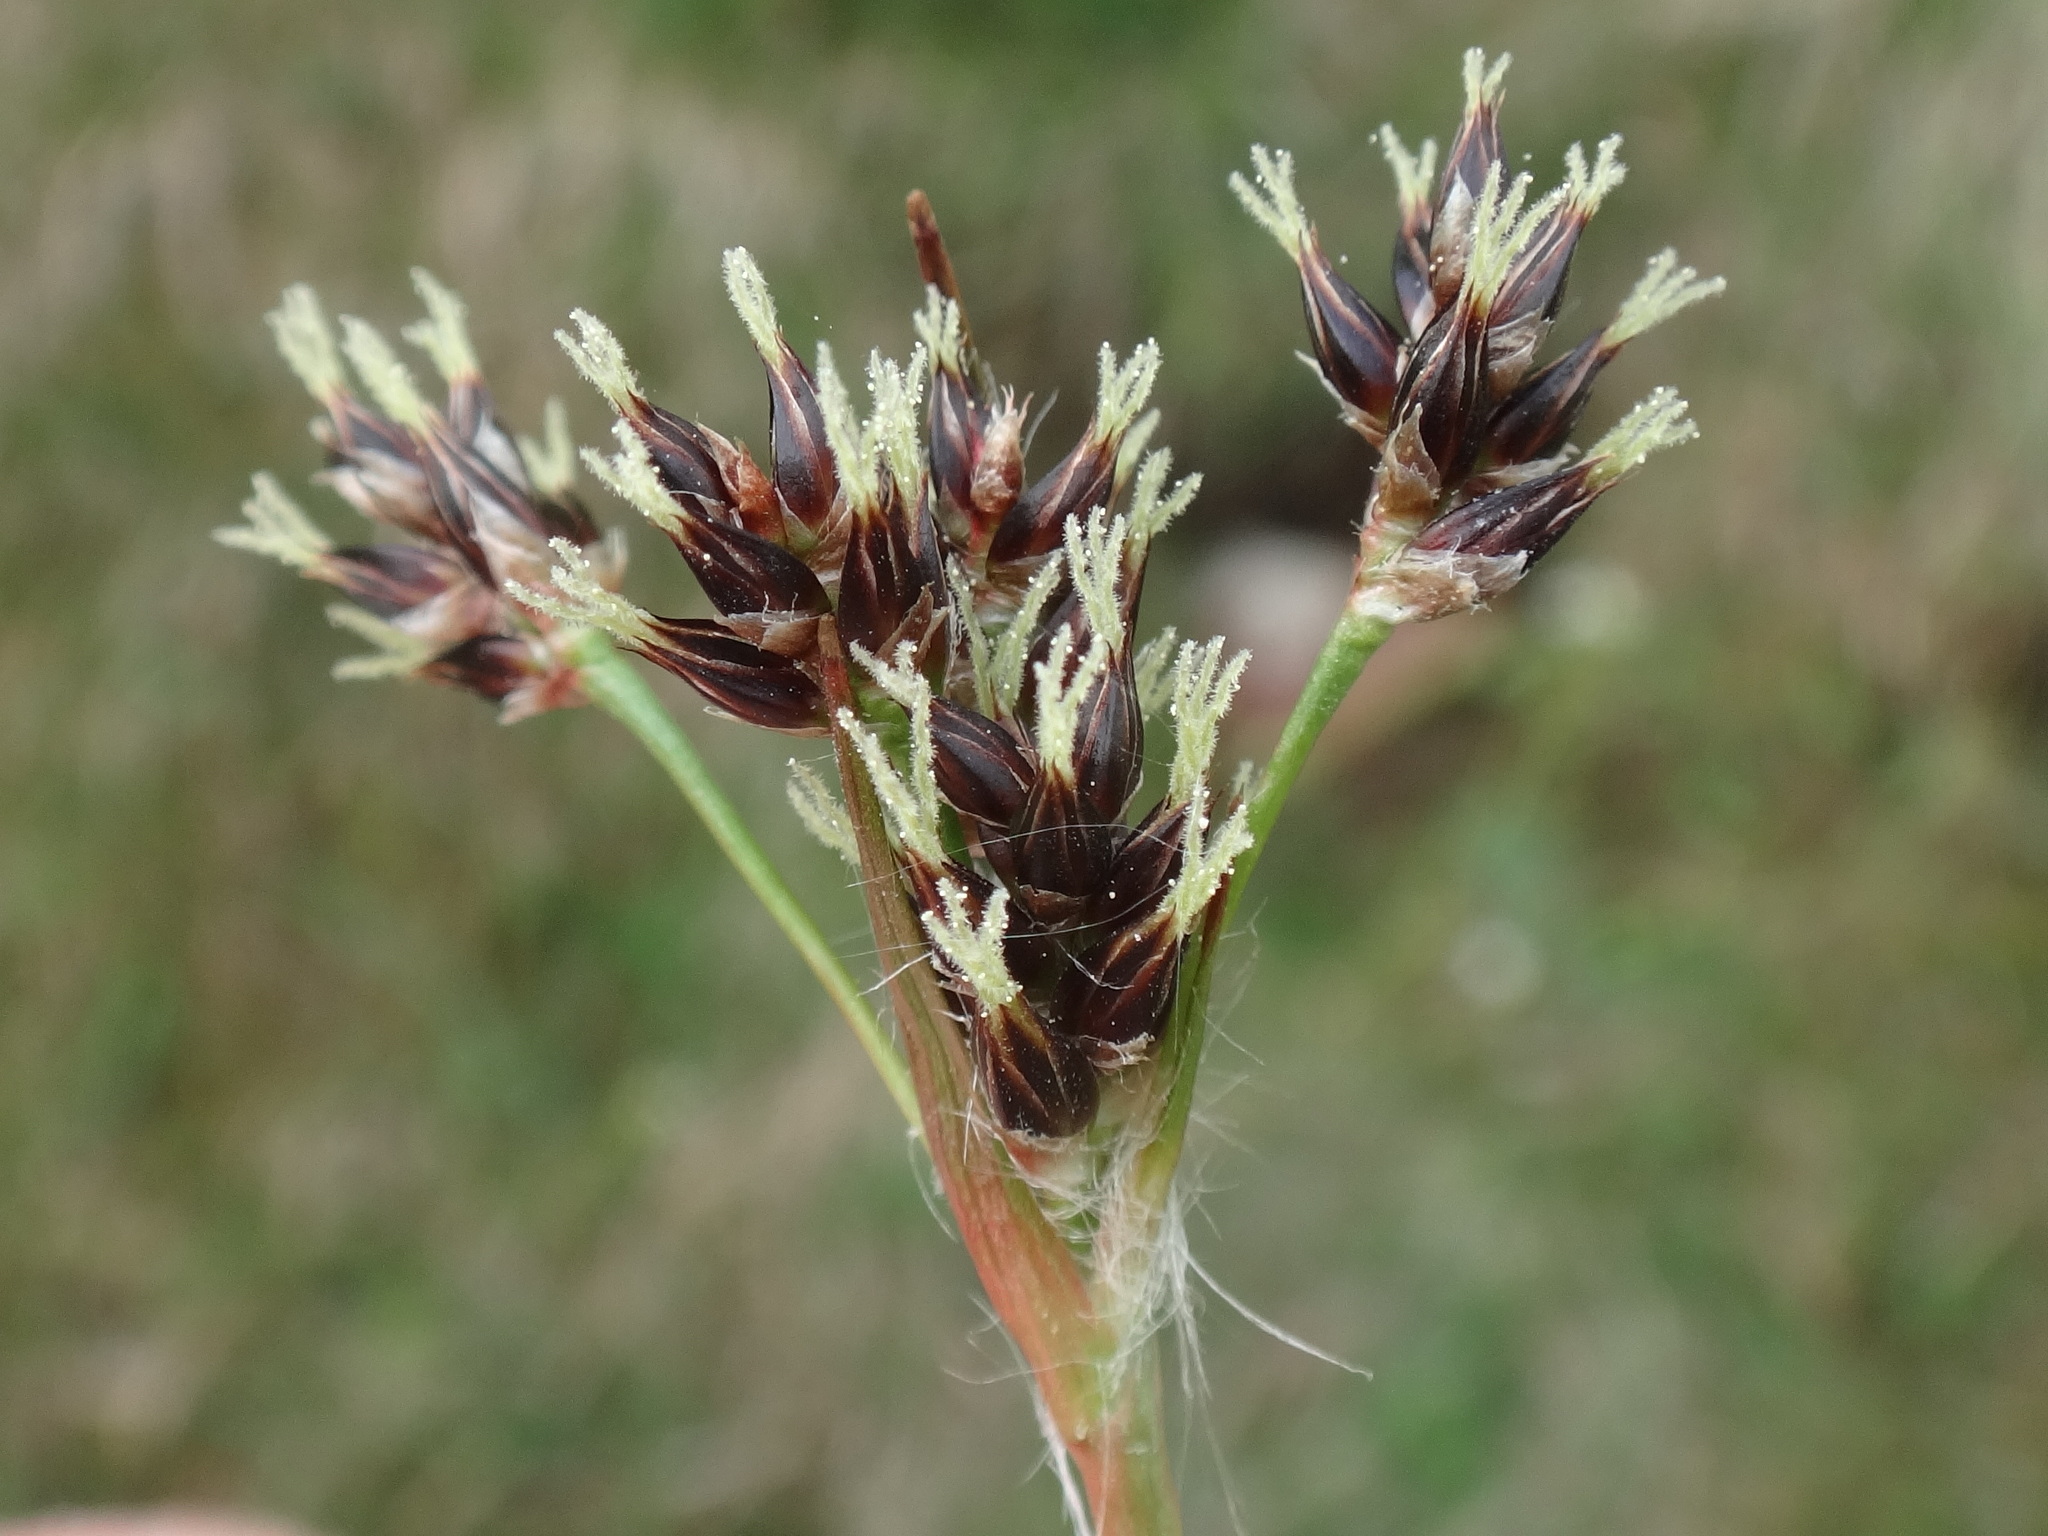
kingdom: Plantae
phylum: Tracheophyta
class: Liliopsida
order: Poales
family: Juncaceae
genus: Luzula
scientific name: Luzula campestris
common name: Field wood-rush
